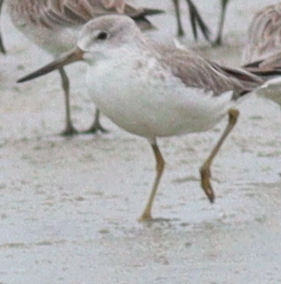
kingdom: Animalia
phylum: Chordata
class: Aves
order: Charadriiformes
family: Scolopacidae
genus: Tringa
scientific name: Tringa guttifer
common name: Nordmann's greenshank
